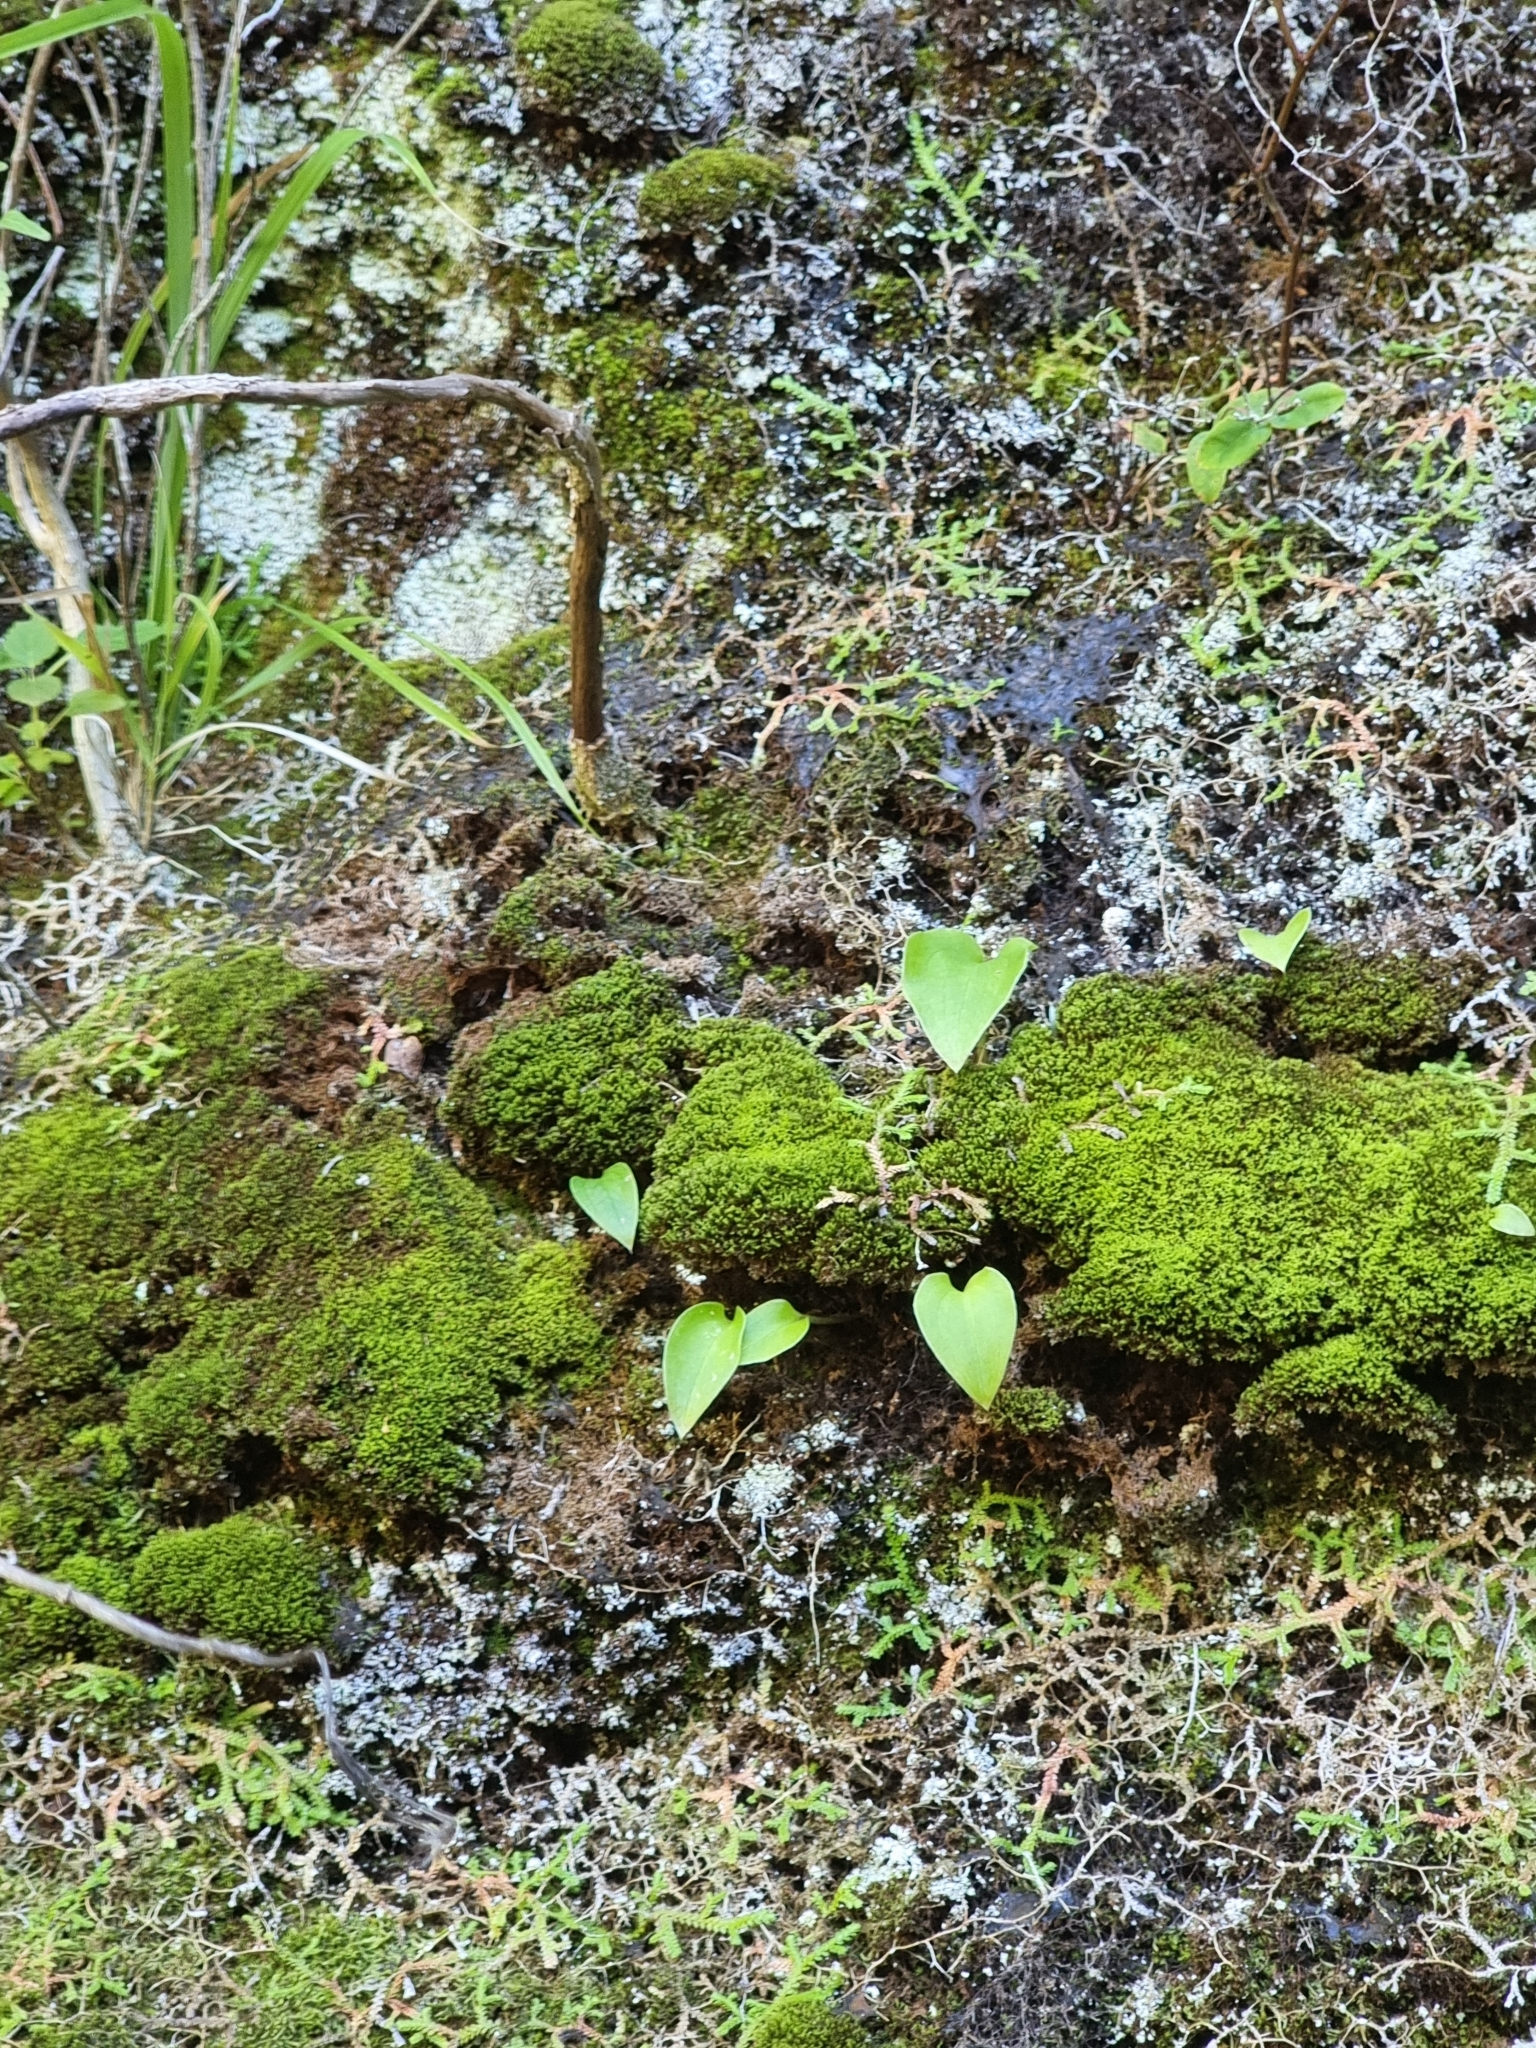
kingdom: Plantae
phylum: Tracheophyta
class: Liliopsida
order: Asparagales
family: Orchidaceae
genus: Gennaria
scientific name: Gennaria diphylla
